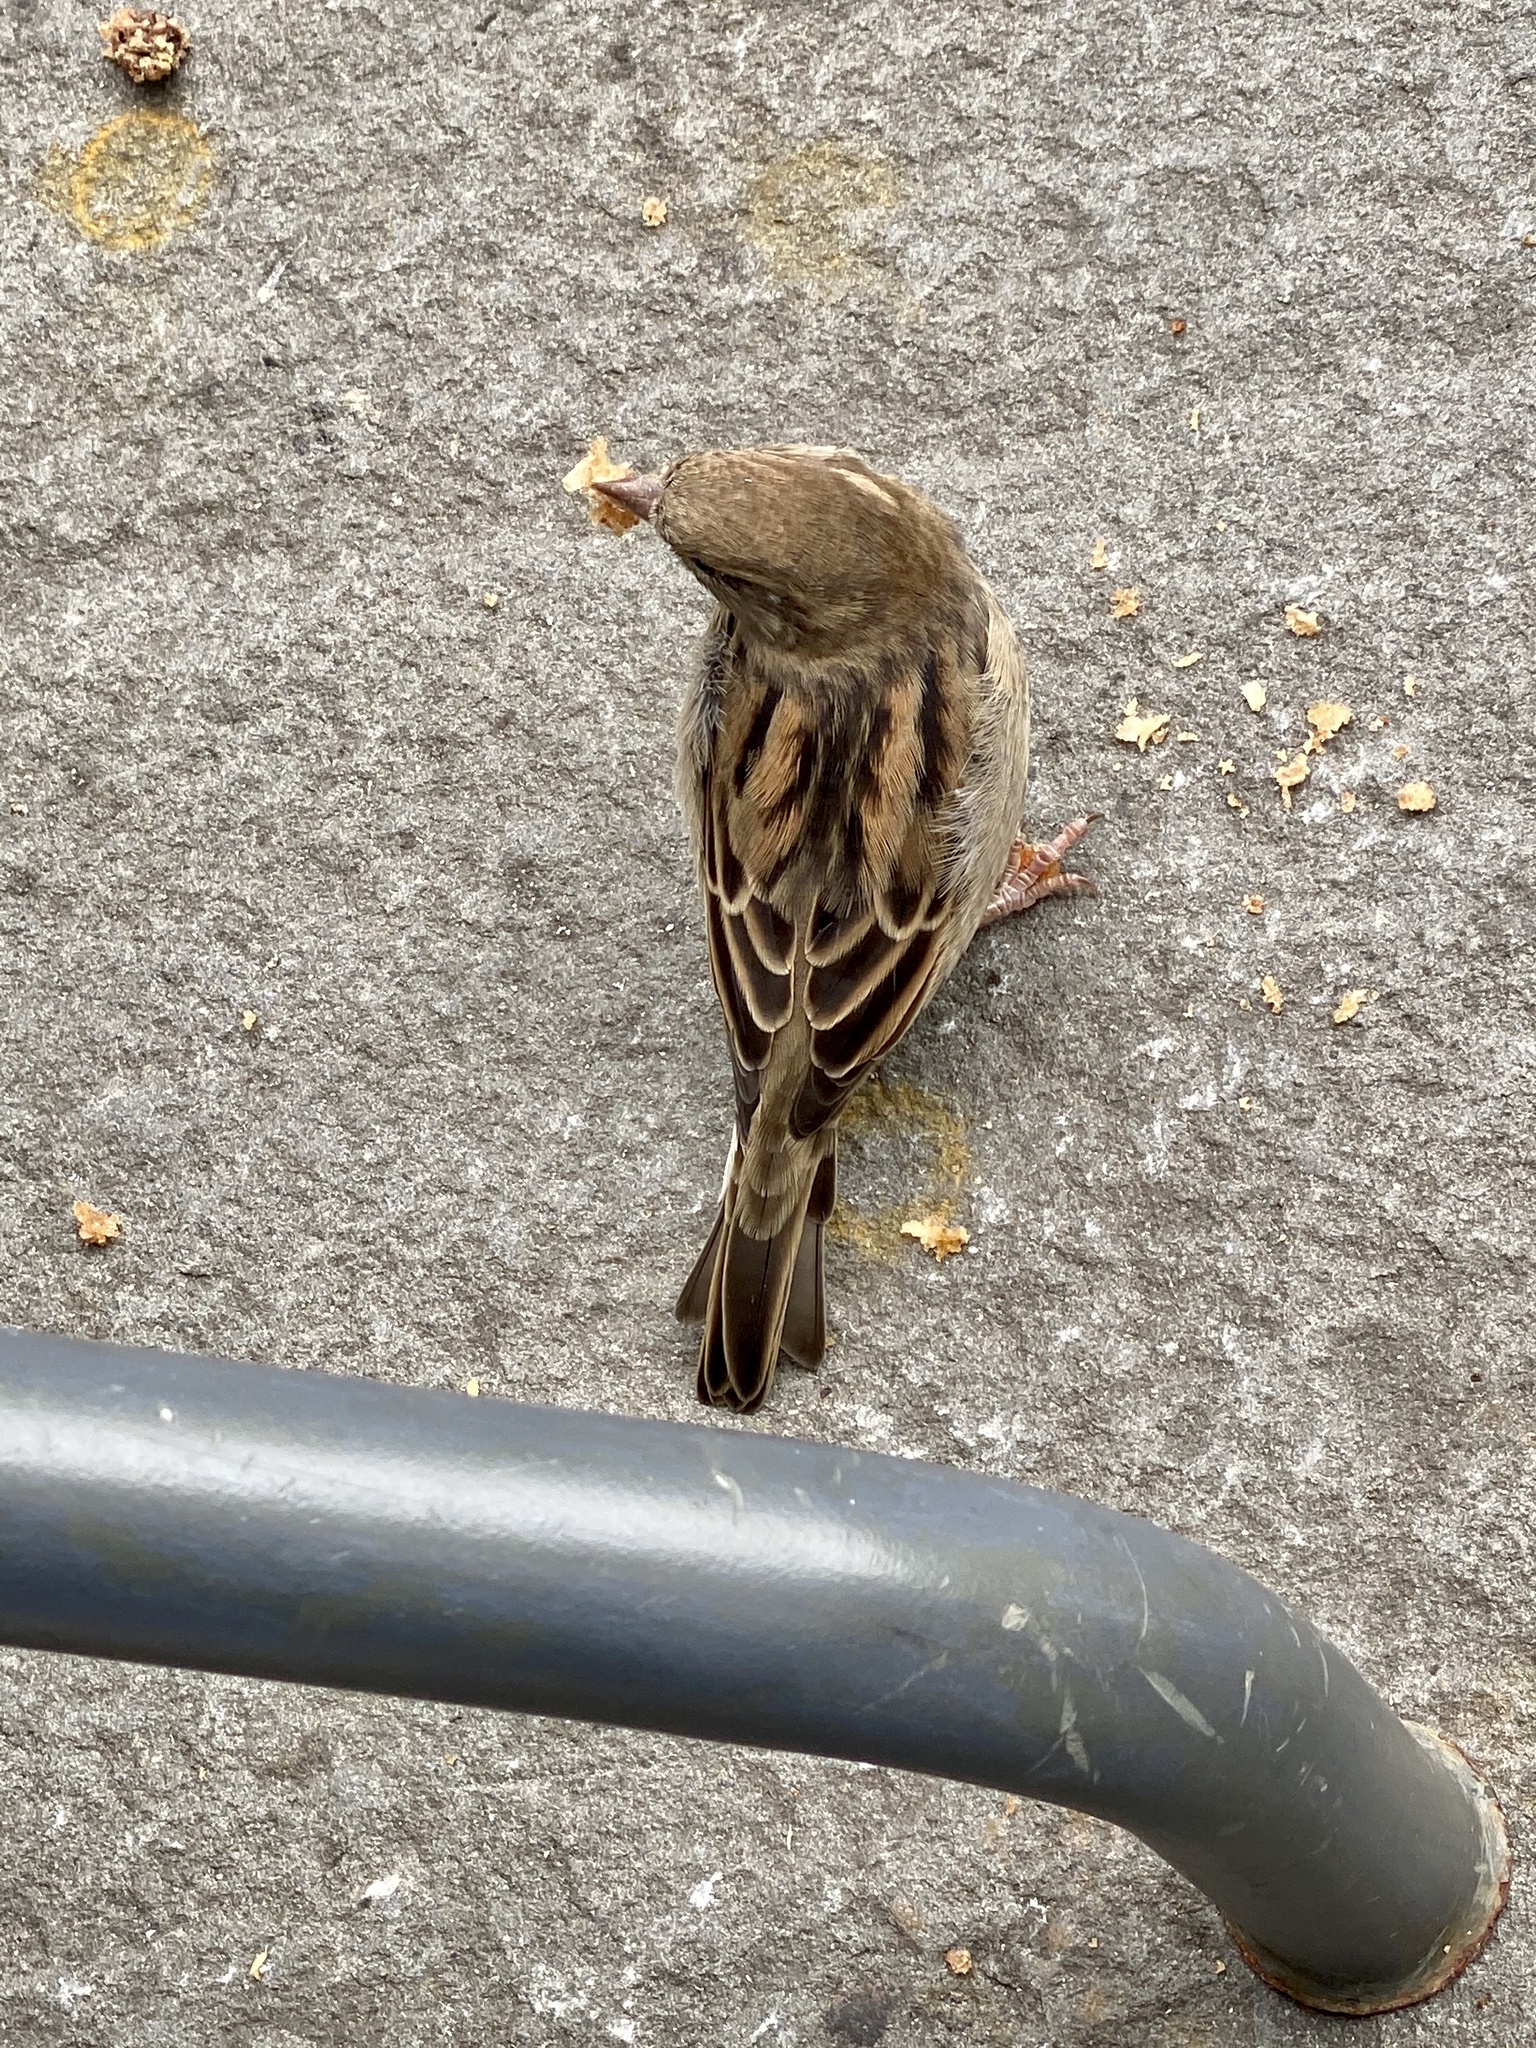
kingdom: Animalia
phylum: Chordata
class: Aves
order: Passeriformes
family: Passeridae
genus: Passer
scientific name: Passer domesticus
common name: House sparrow
